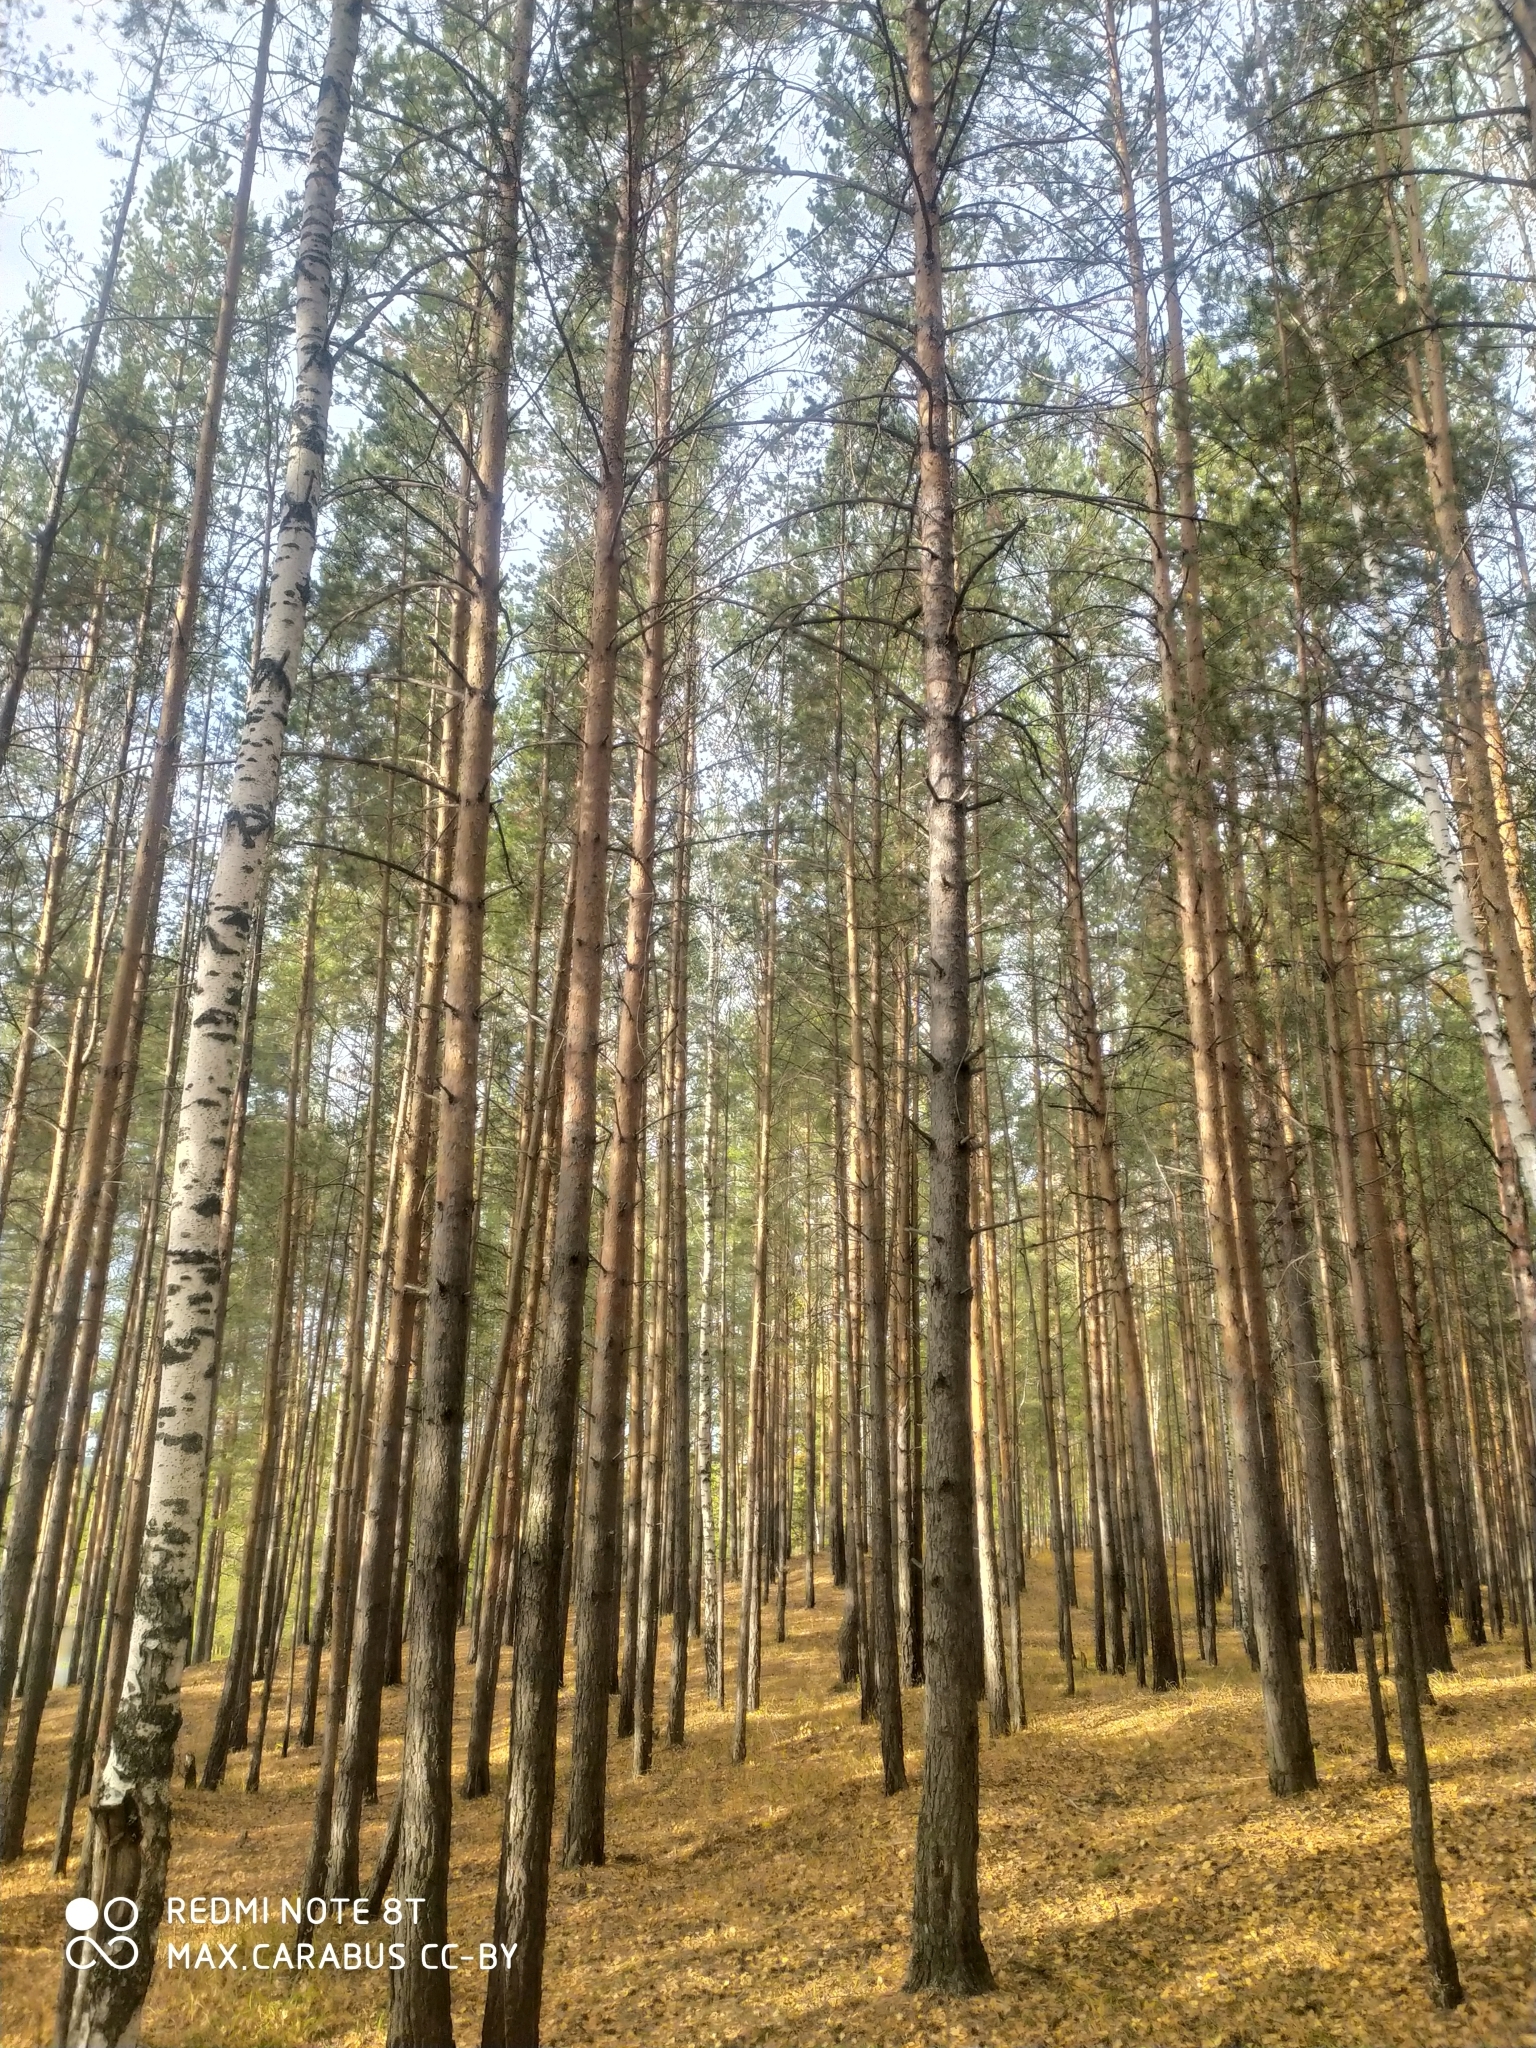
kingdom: Plantae
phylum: Tracheophyta
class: Pinopsida
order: Pinales
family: Pinaceae
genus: Pinus
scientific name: Pinus sylvestris
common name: Scots pine
